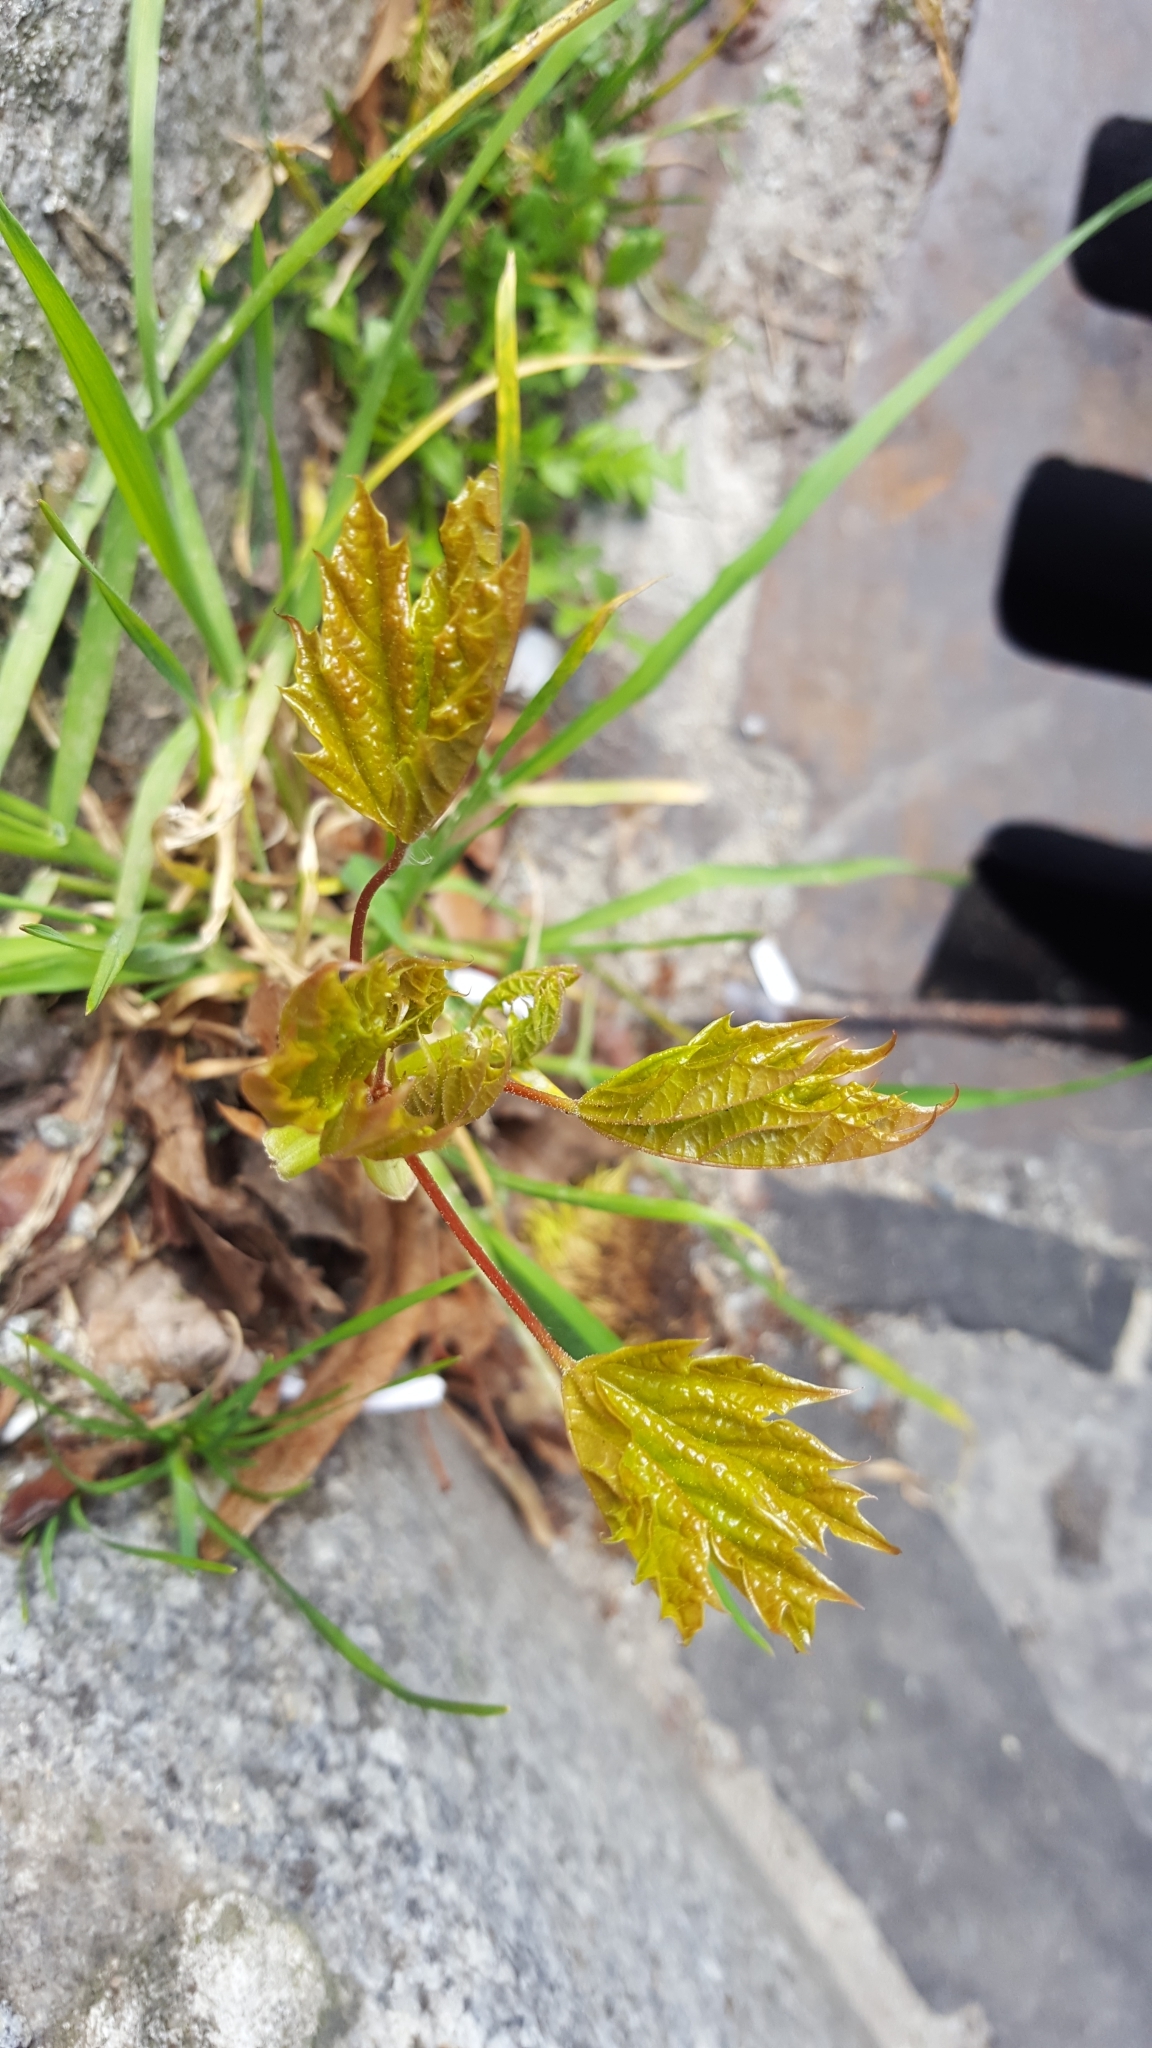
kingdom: Plantae
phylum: Tracheophyta
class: Magnoliopsida
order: Sapindales
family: Sapindaceae
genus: Acer
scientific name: Acer platanoides
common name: Norway maple
